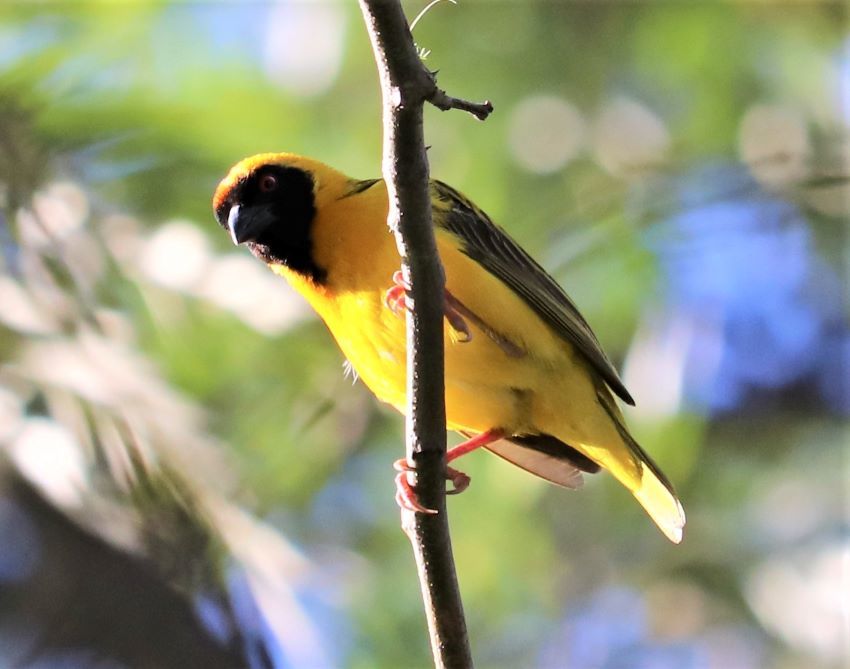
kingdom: Animalia
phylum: Chordata
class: Aves
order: Passeriformes
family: Ploceidae
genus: Ploceus
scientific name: Ploceus velatus
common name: Southern masked weaver
